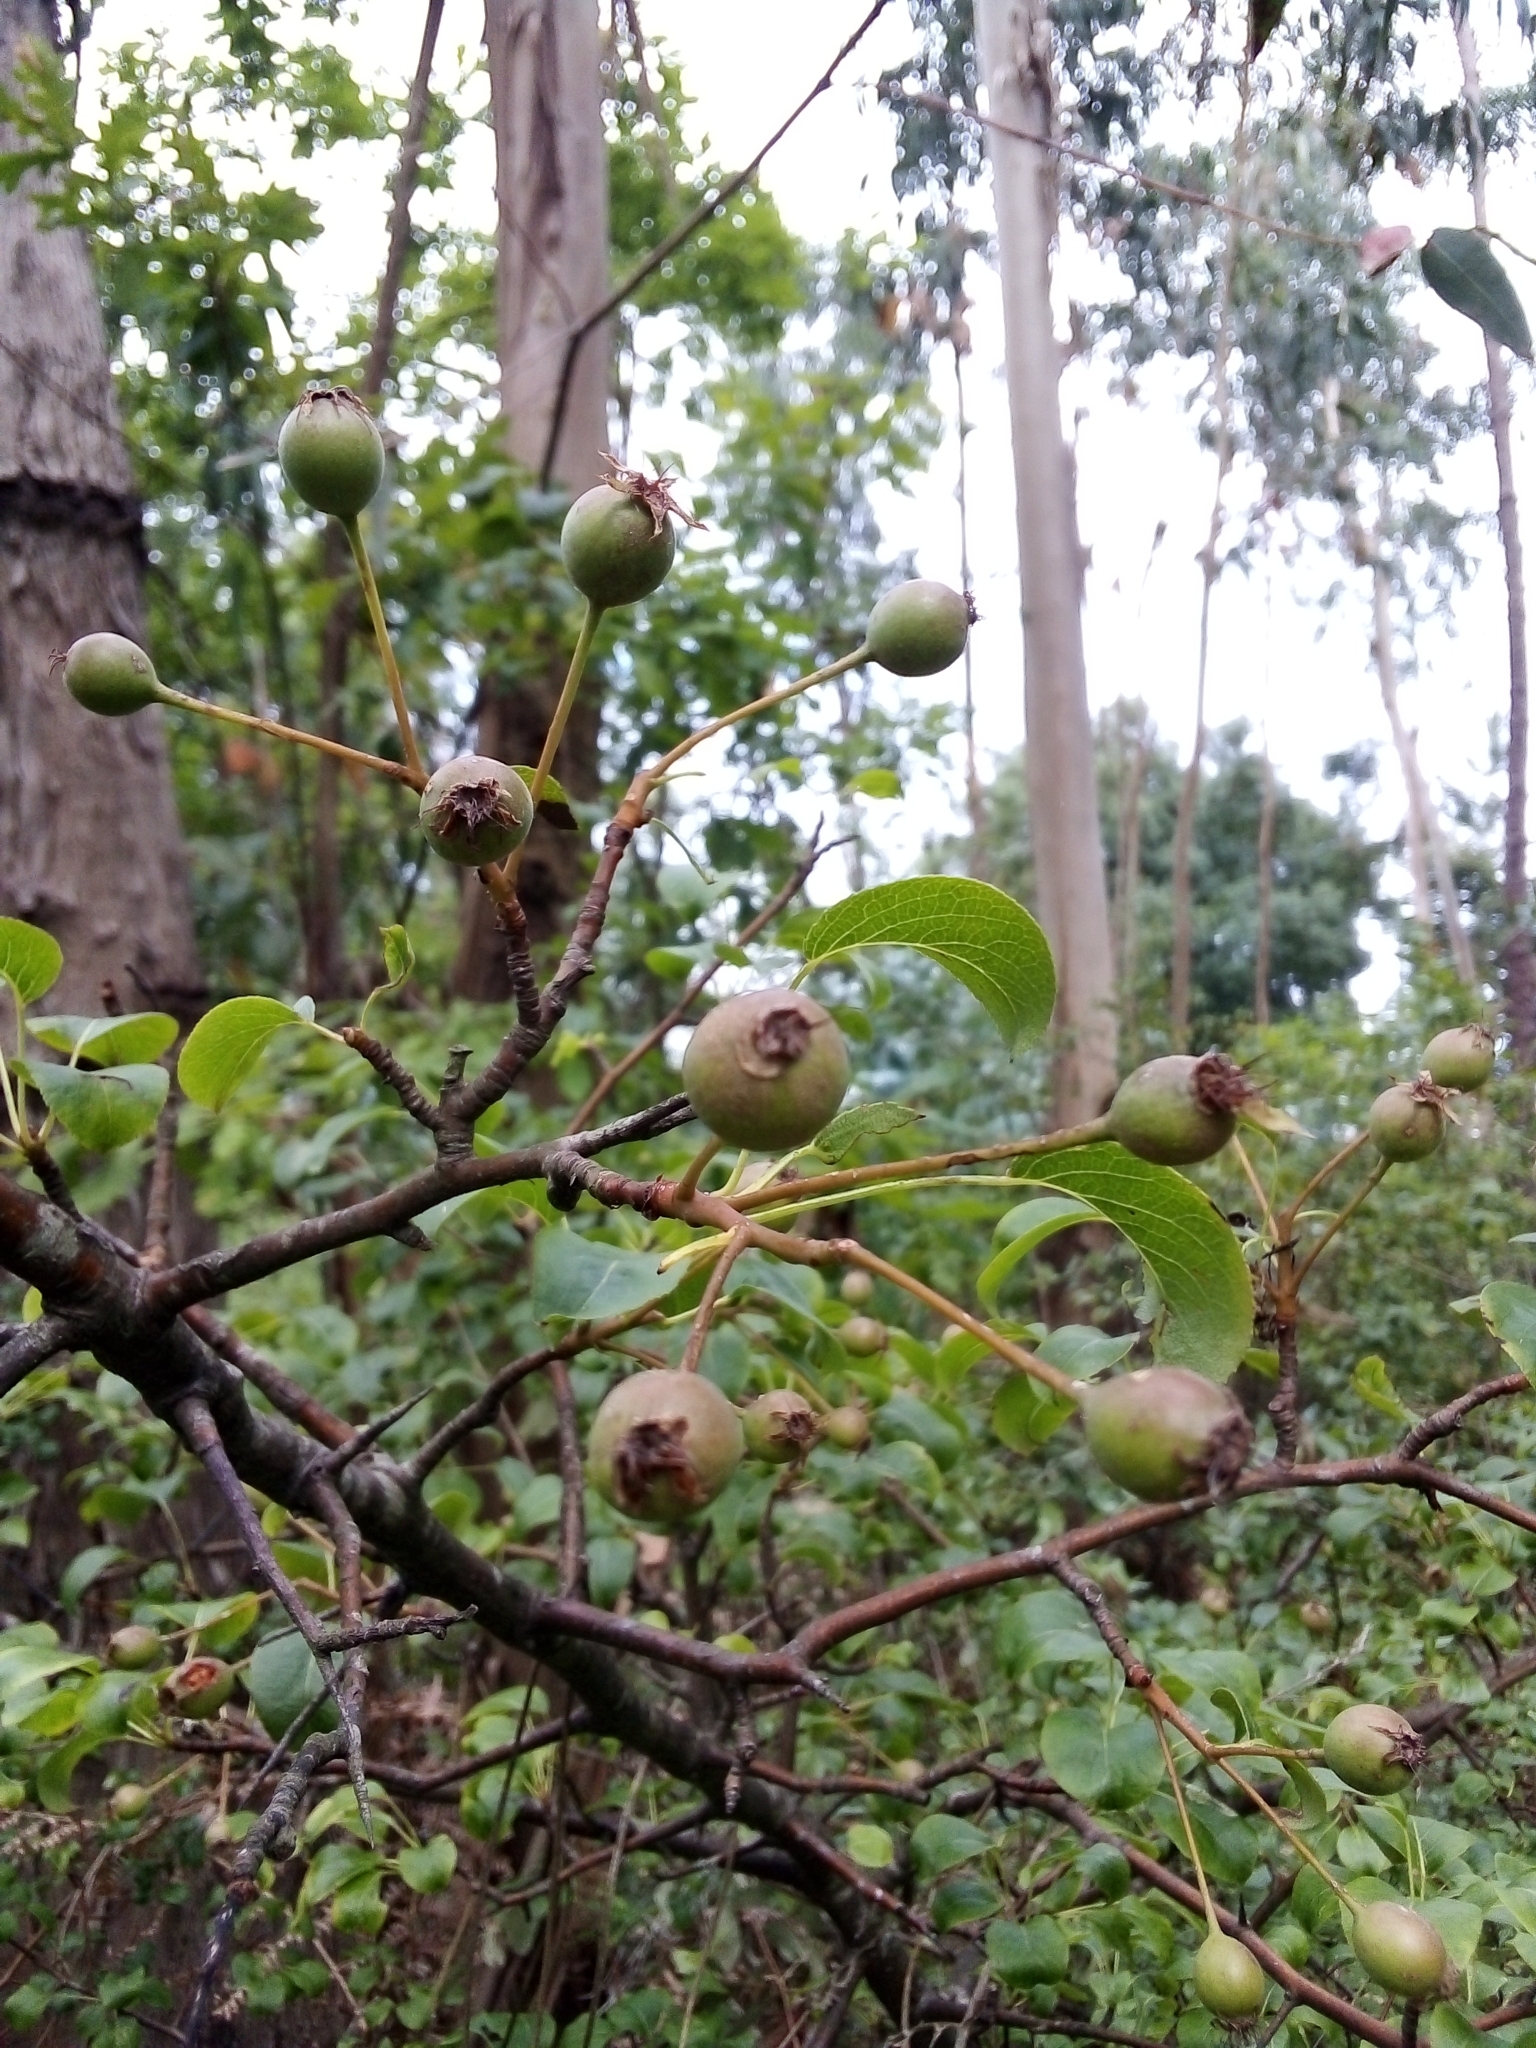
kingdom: Plantae
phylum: Tracheophyta
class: Magnoliopsida
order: Rosales
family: Rosaceae
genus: Pyrus
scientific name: Pyrus cordata
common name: Plymouth pear
